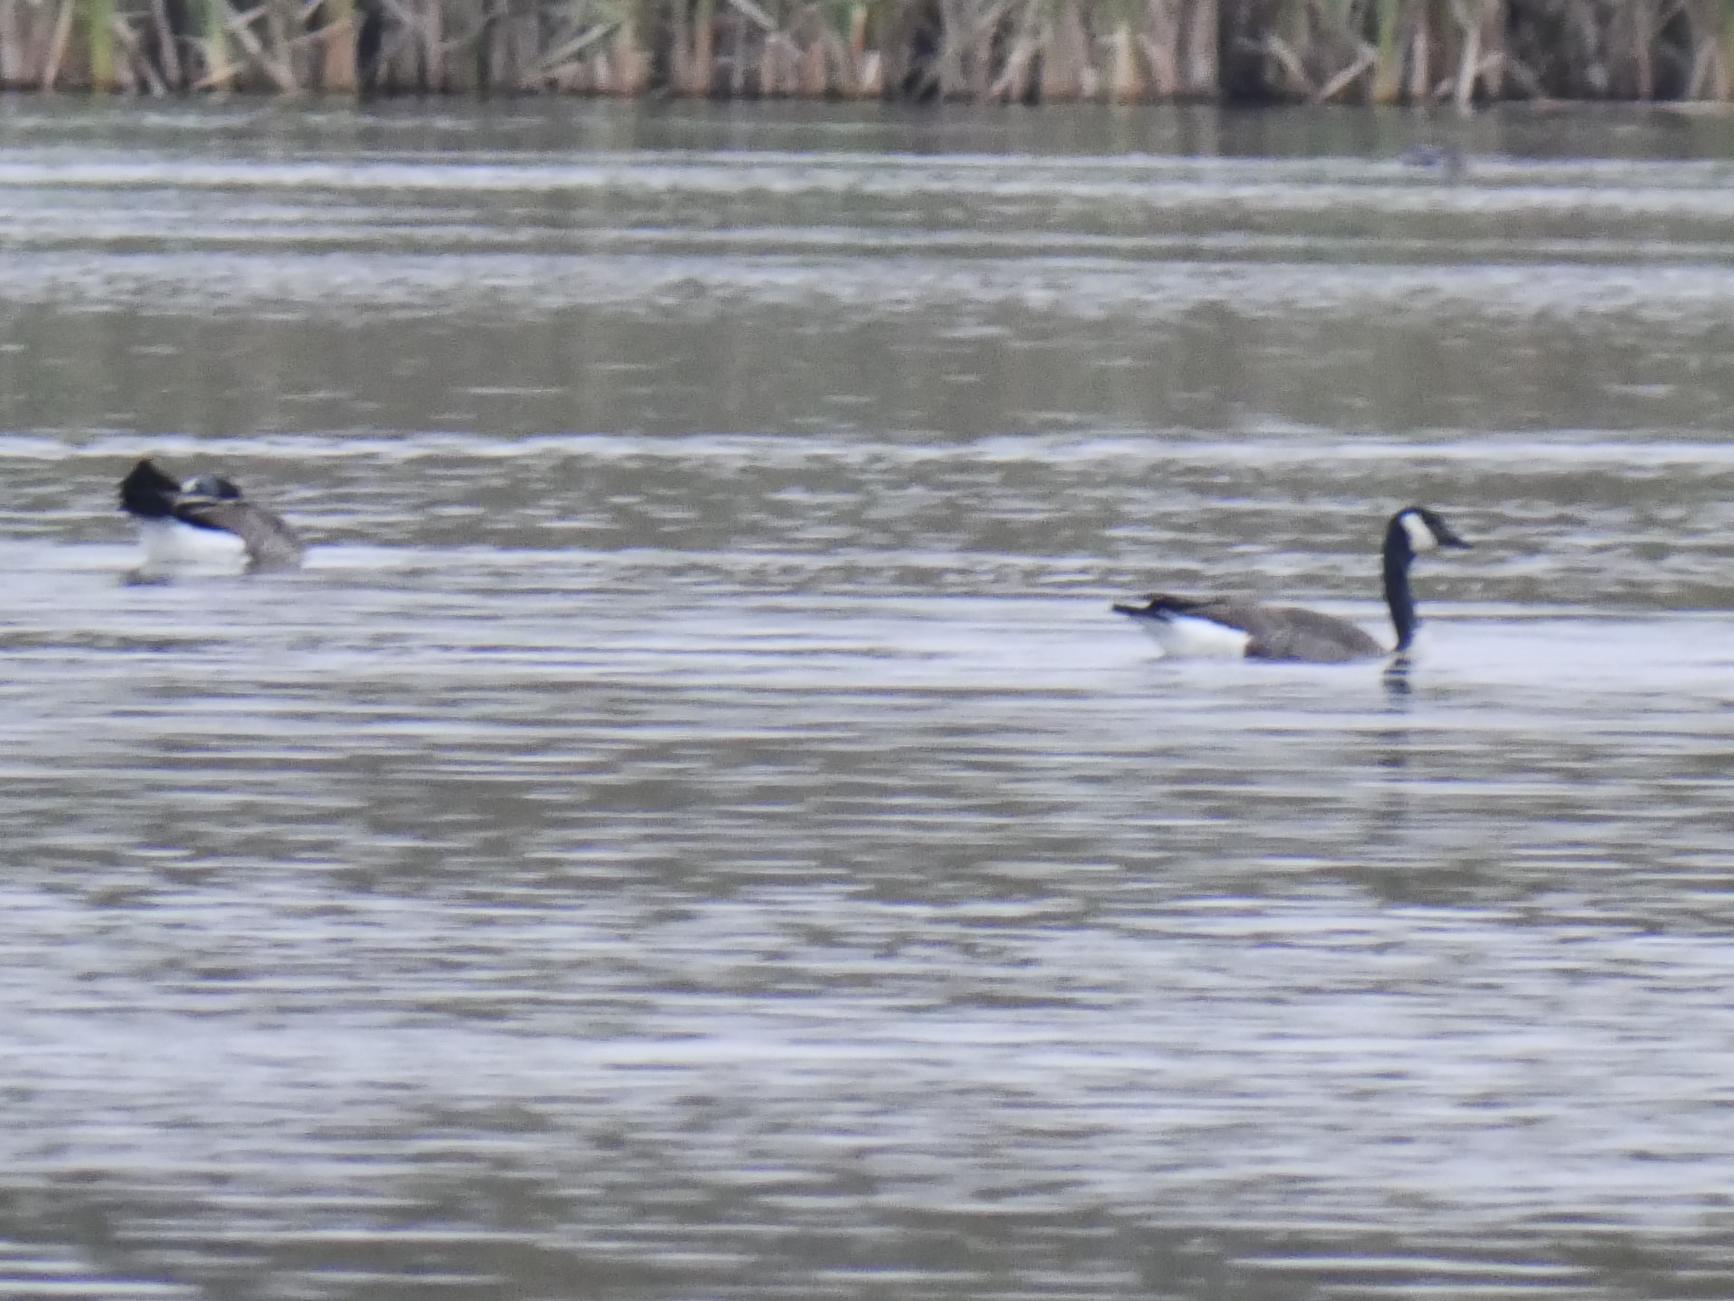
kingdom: Animalia
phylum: Chordata
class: Aves
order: Anseriformes
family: Anatidae
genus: Branta
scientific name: Branta canadensis
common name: Canada goose
